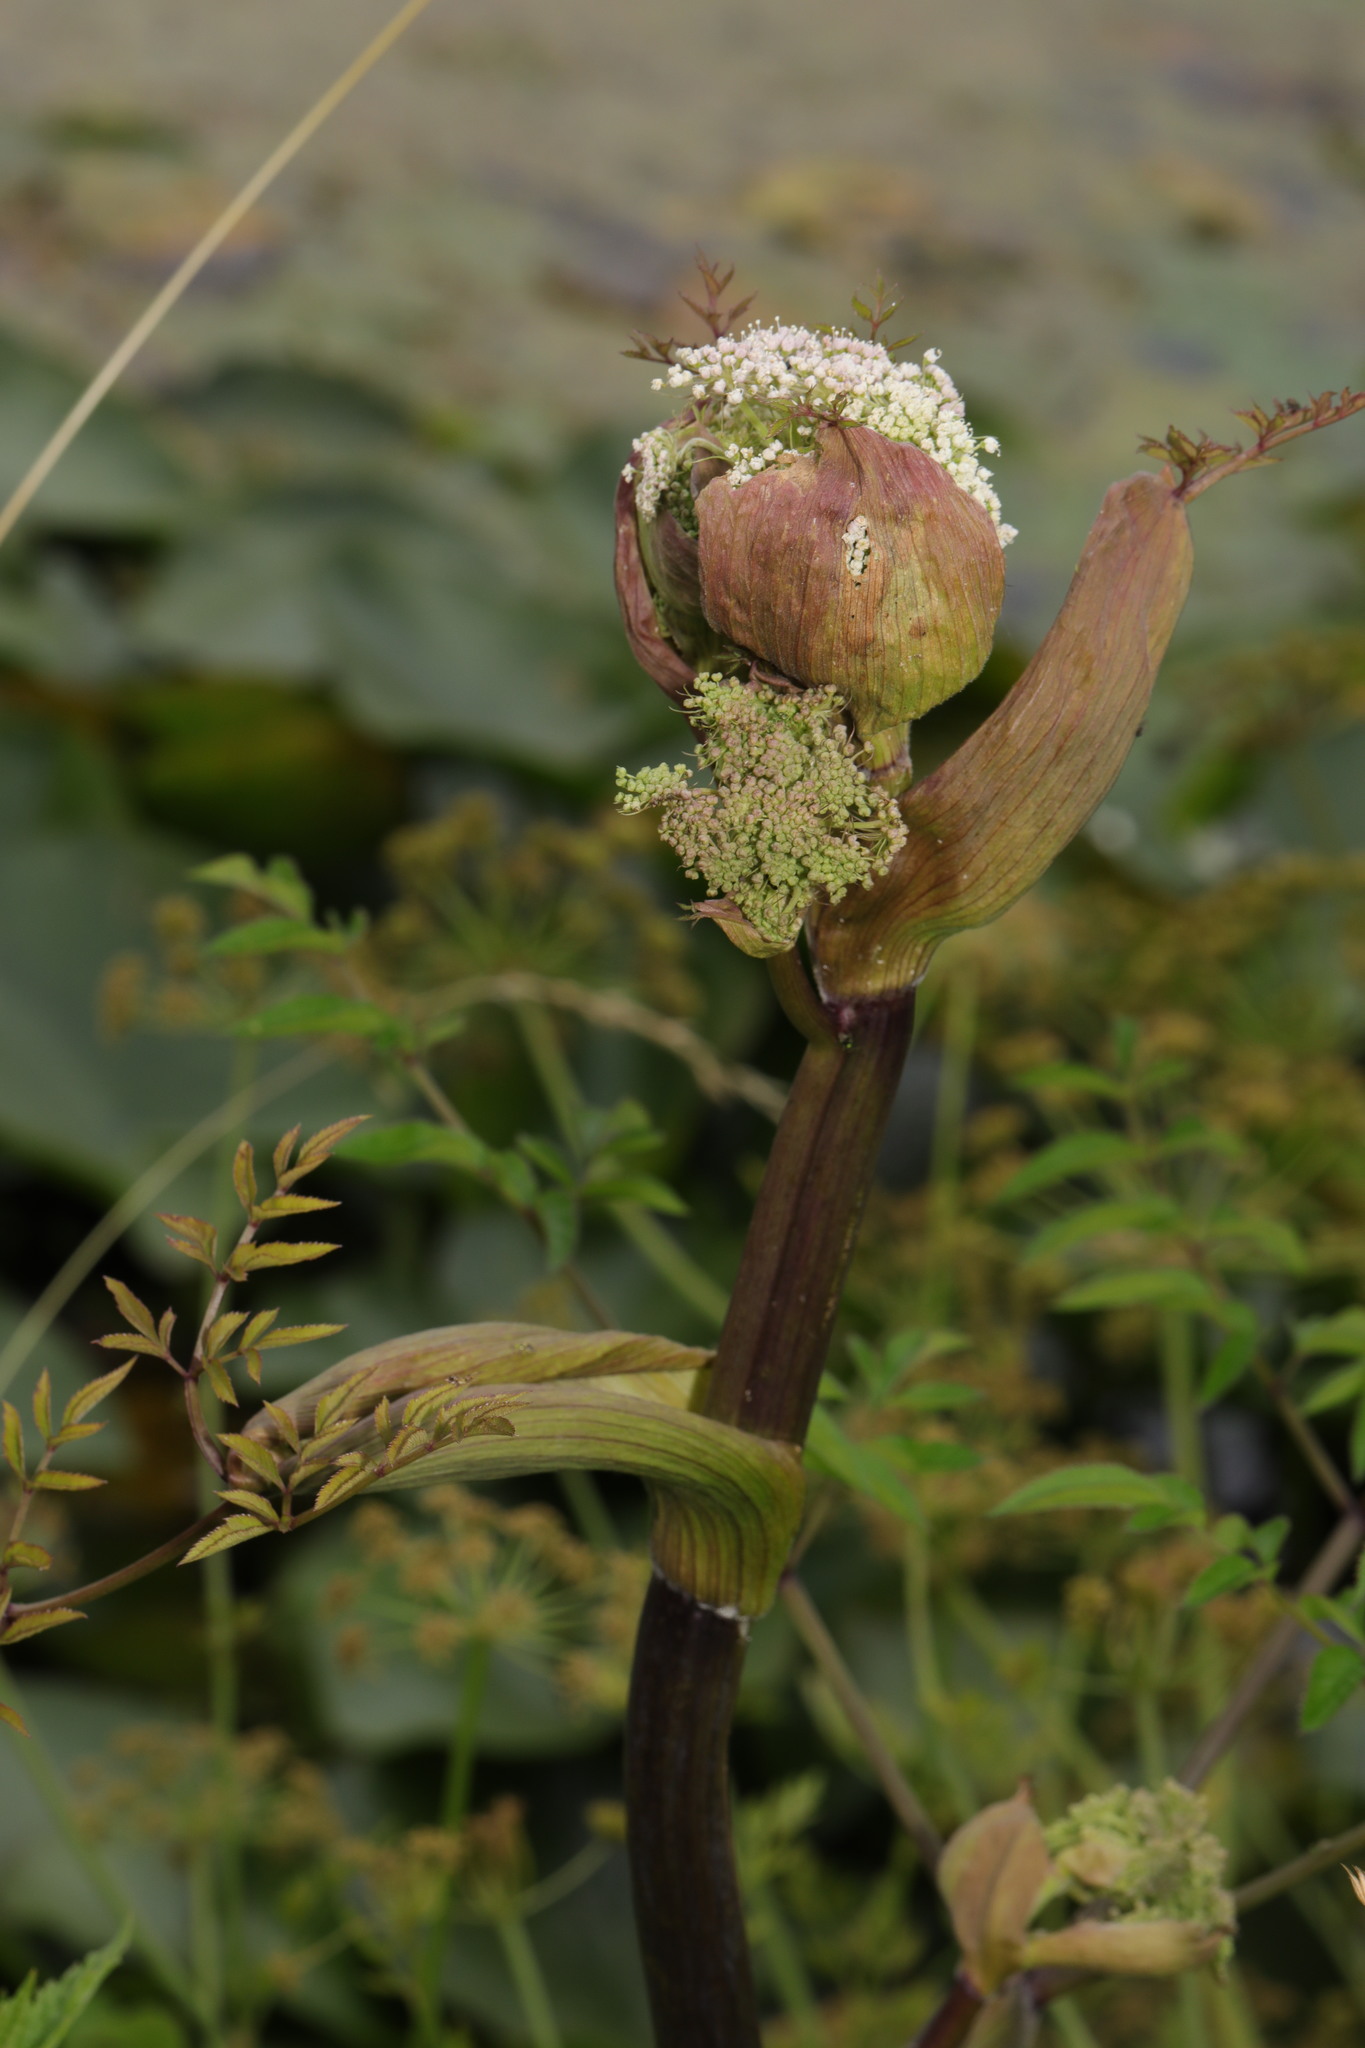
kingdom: Plantae
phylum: Tracheophyta
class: Magnoliopsida
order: Apiales
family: Apiaceae
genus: Angelica
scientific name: Angelica sylvestris
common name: Wild angelica
